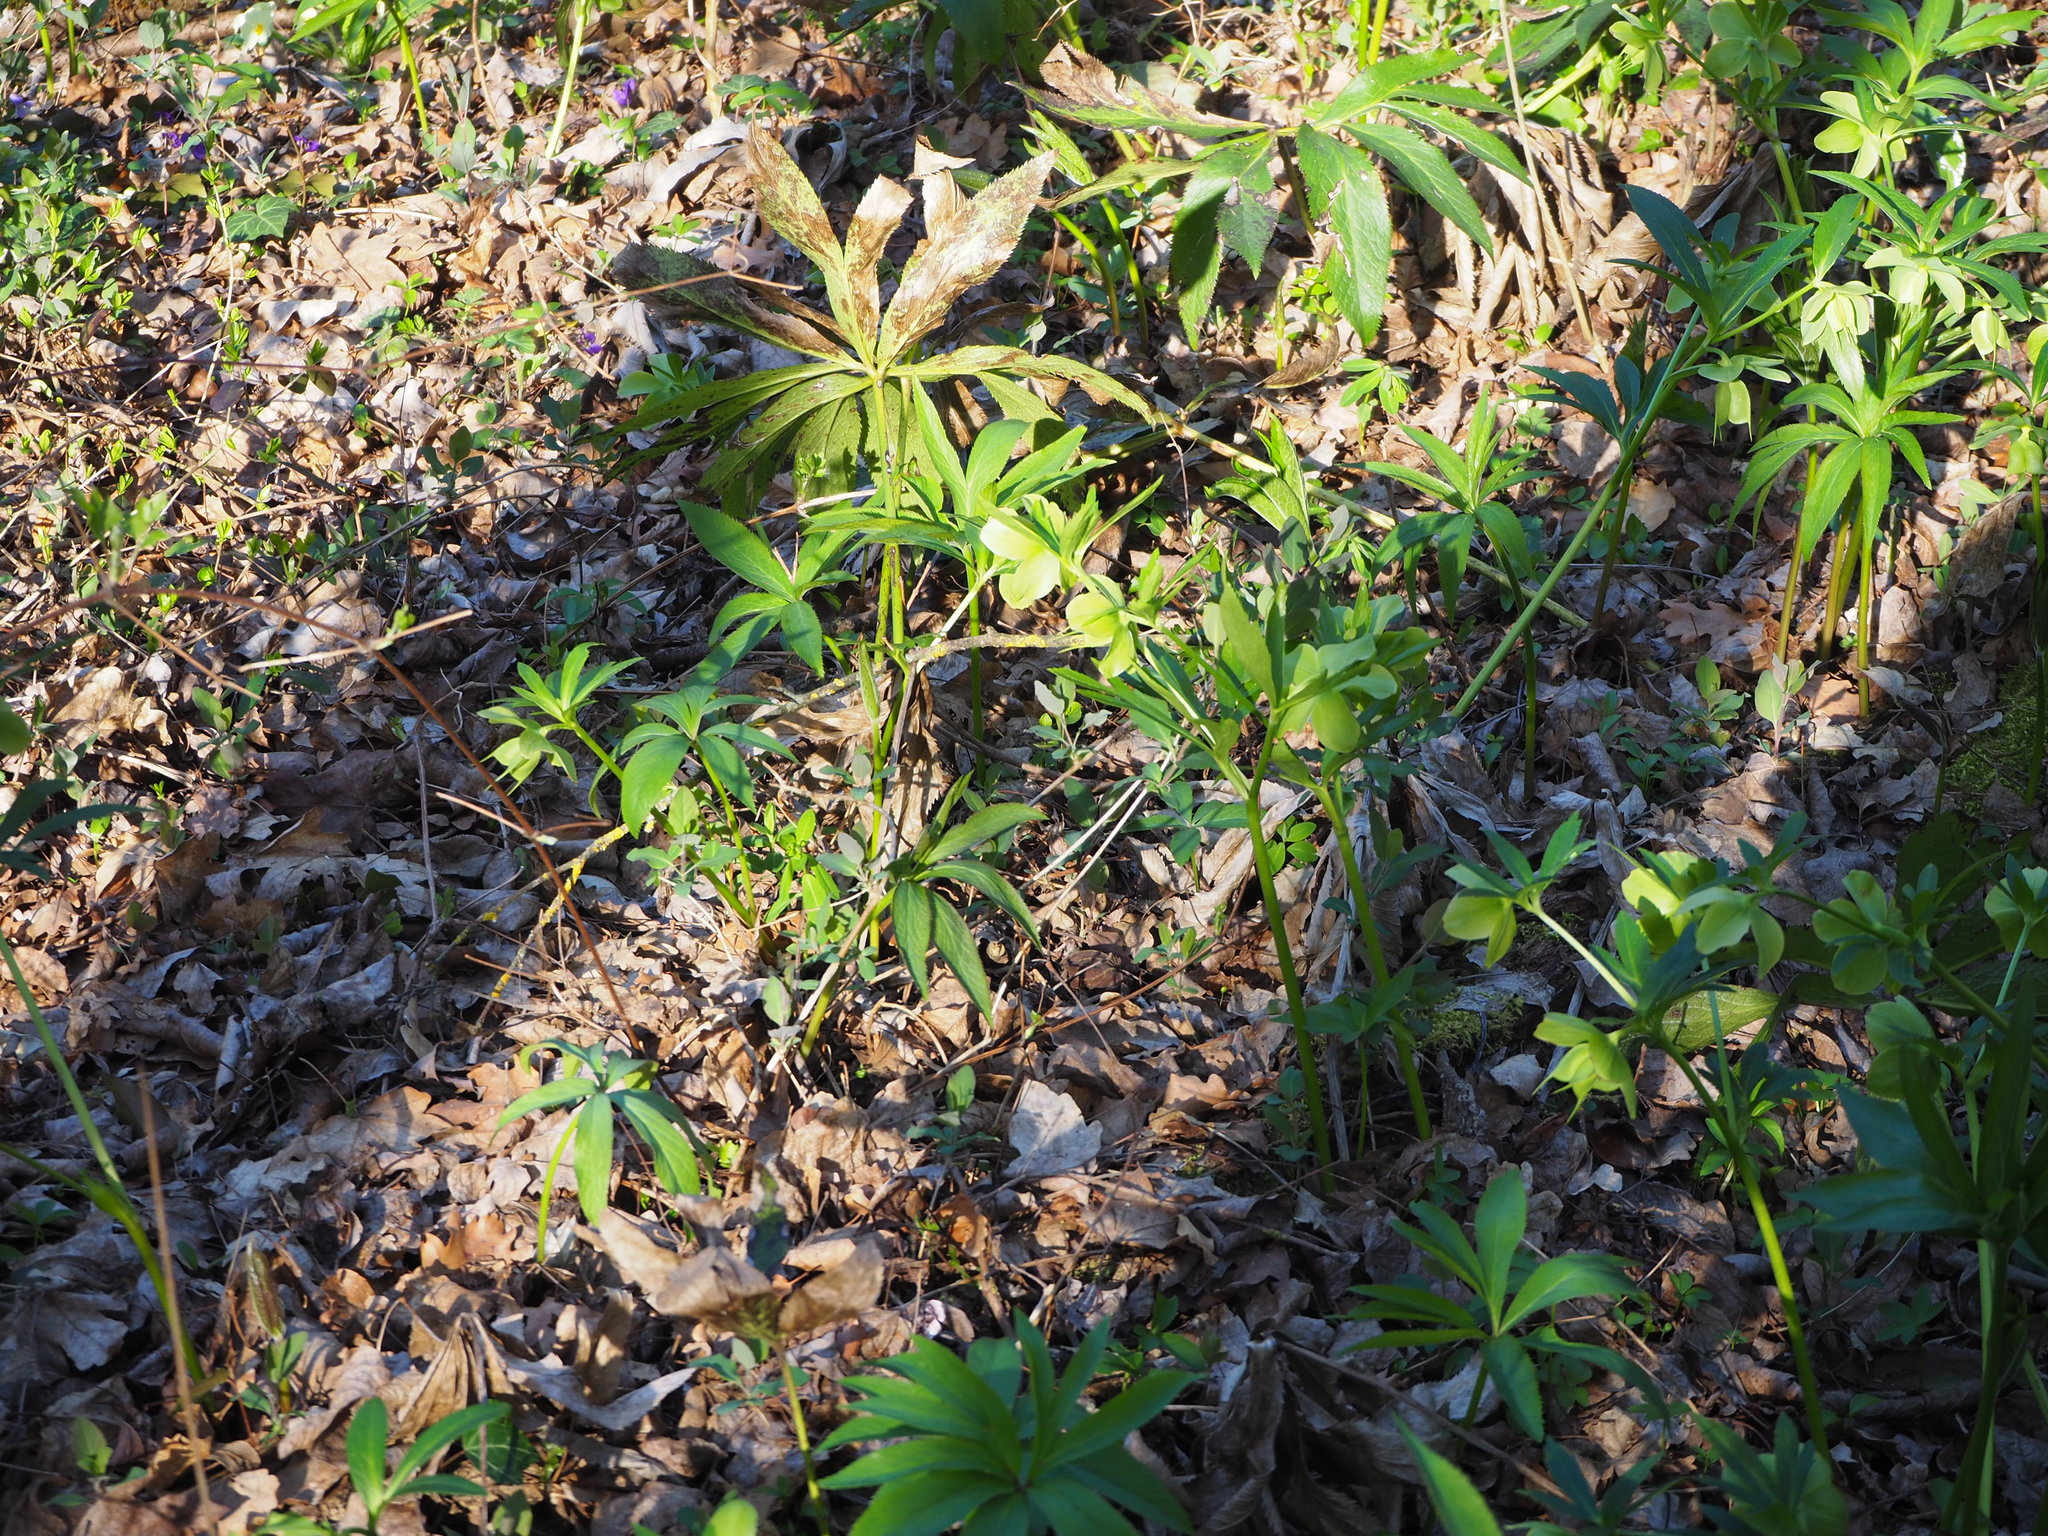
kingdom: Plantae
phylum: Tracheophyta
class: Magnoliopsida
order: Ranunculales
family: Ranunculaceae
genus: Helleborus
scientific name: Helleborus viridis
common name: Green hellebore
